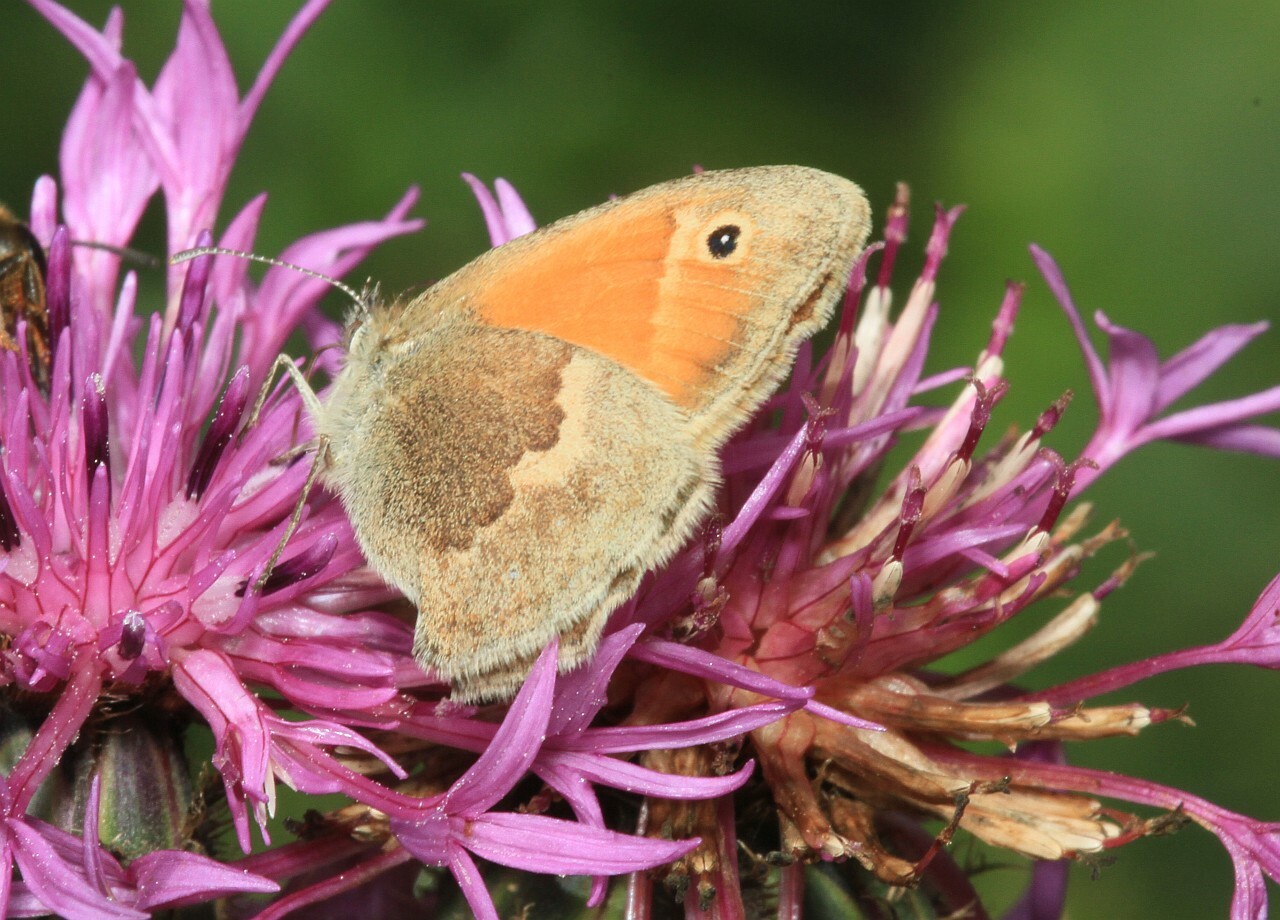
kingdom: Animalia
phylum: Arthropoda
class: Insecta
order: Lepidoptera
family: Nymphalidae
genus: Coenonympha
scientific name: Coenonympha pamphilus
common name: Small heath
